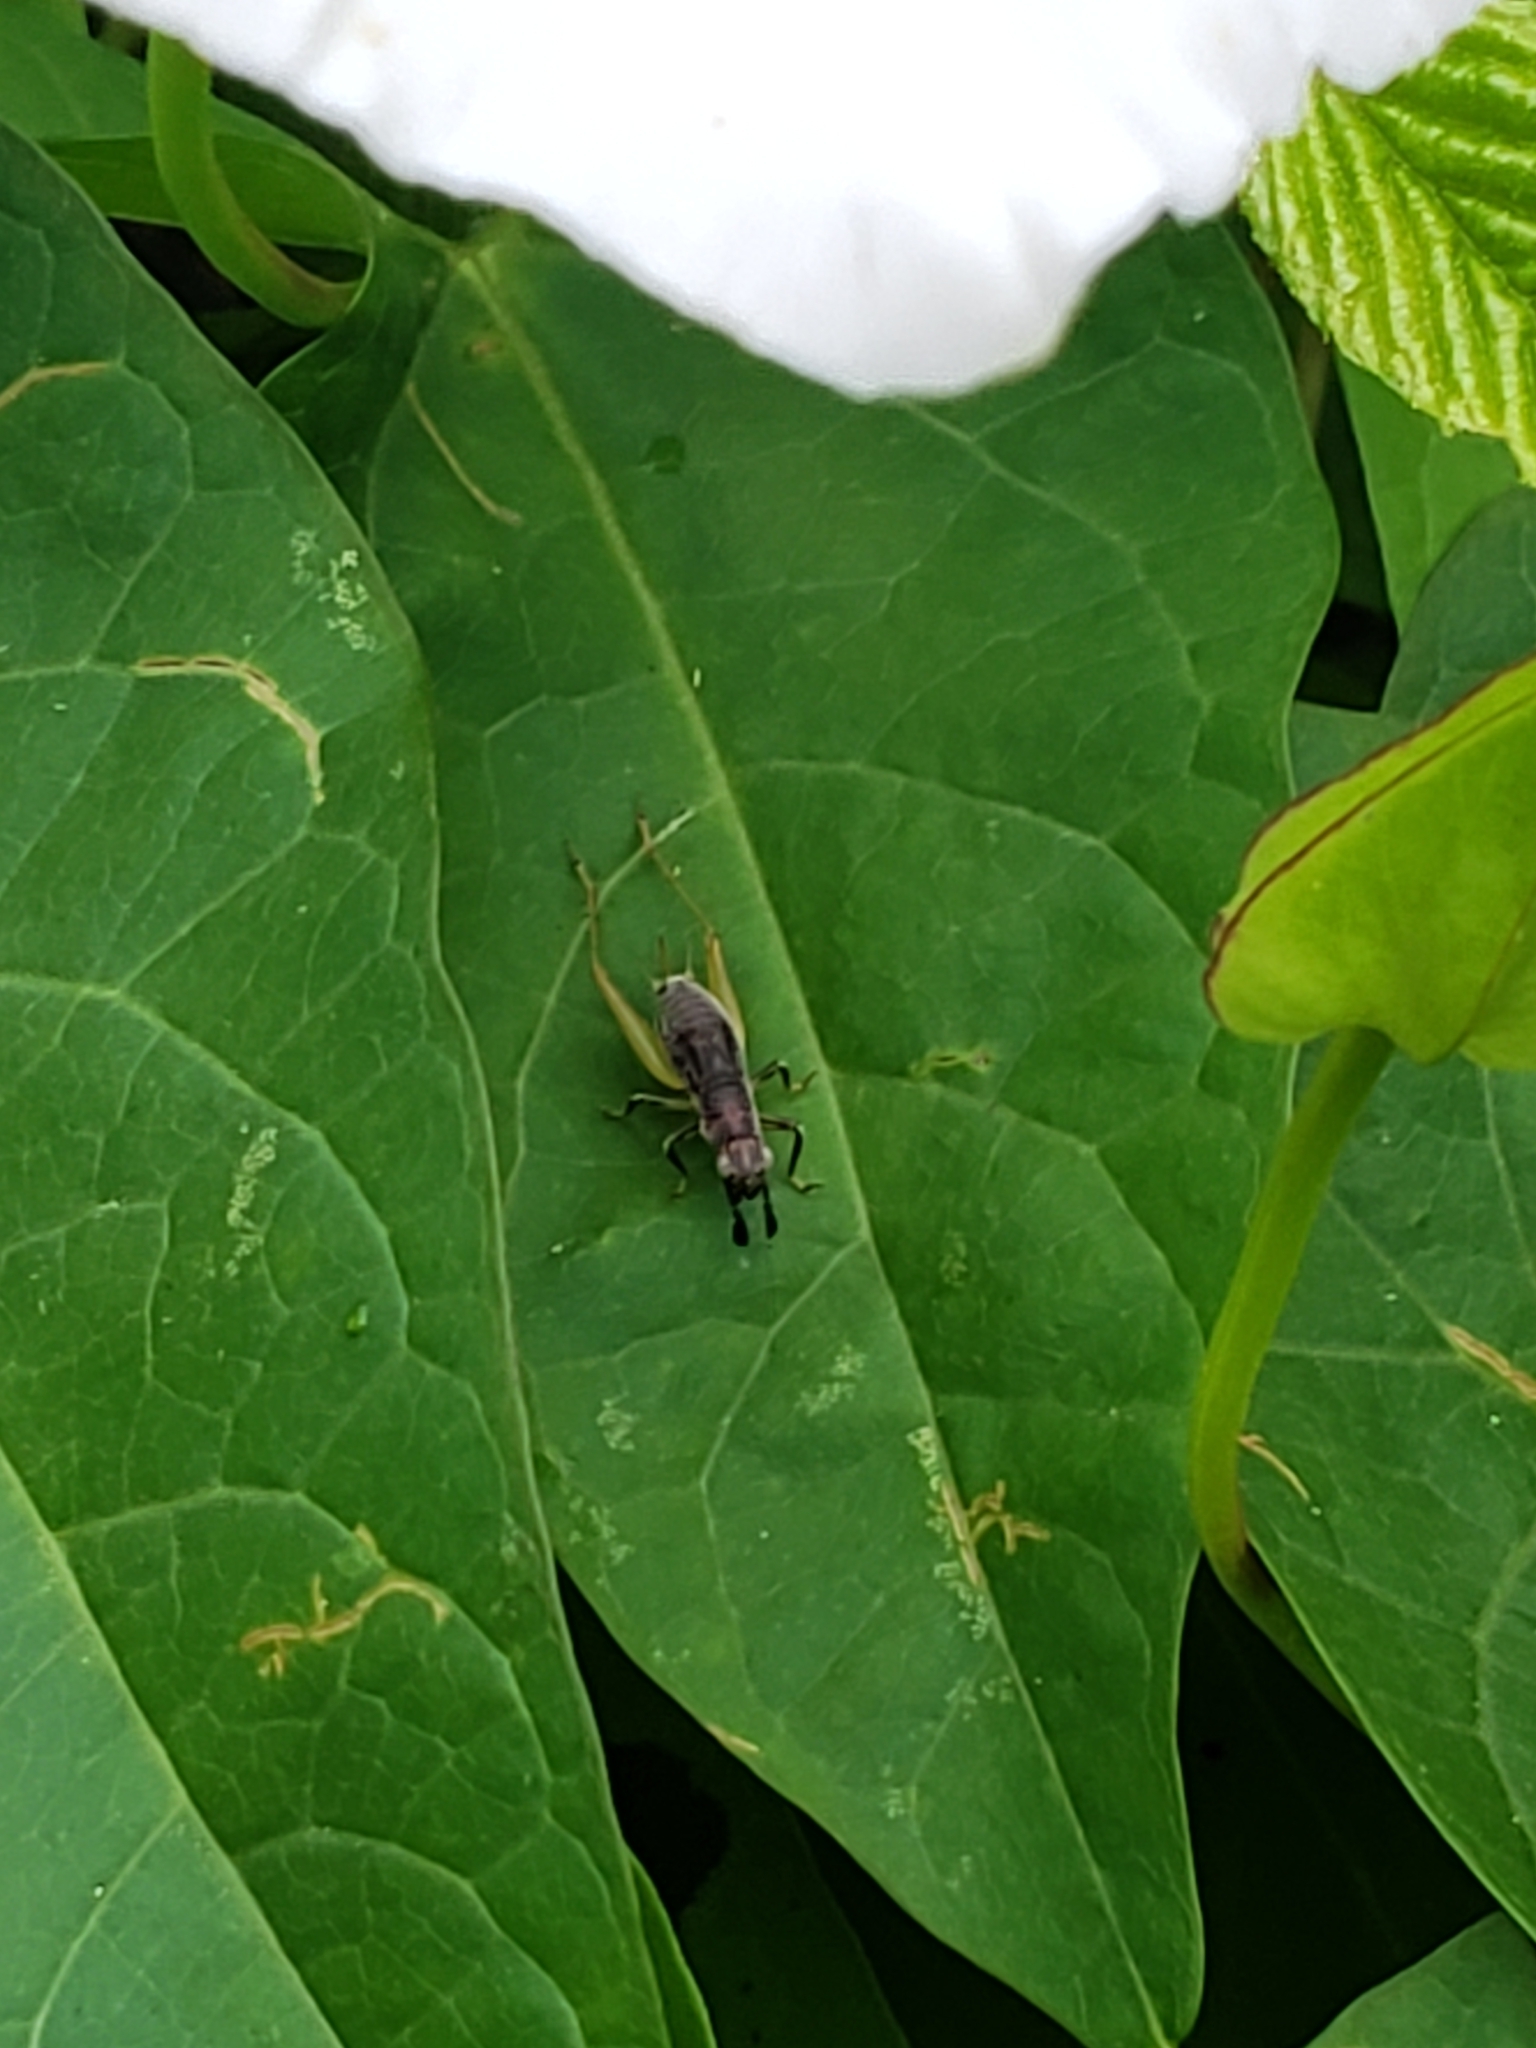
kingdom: Animalia
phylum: Arthropoda
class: Insecta
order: Orthoptera
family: Trigonidiidae
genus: Phyllopalpus
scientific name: Phyllopalpus pulchellus
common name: Handsome trig
